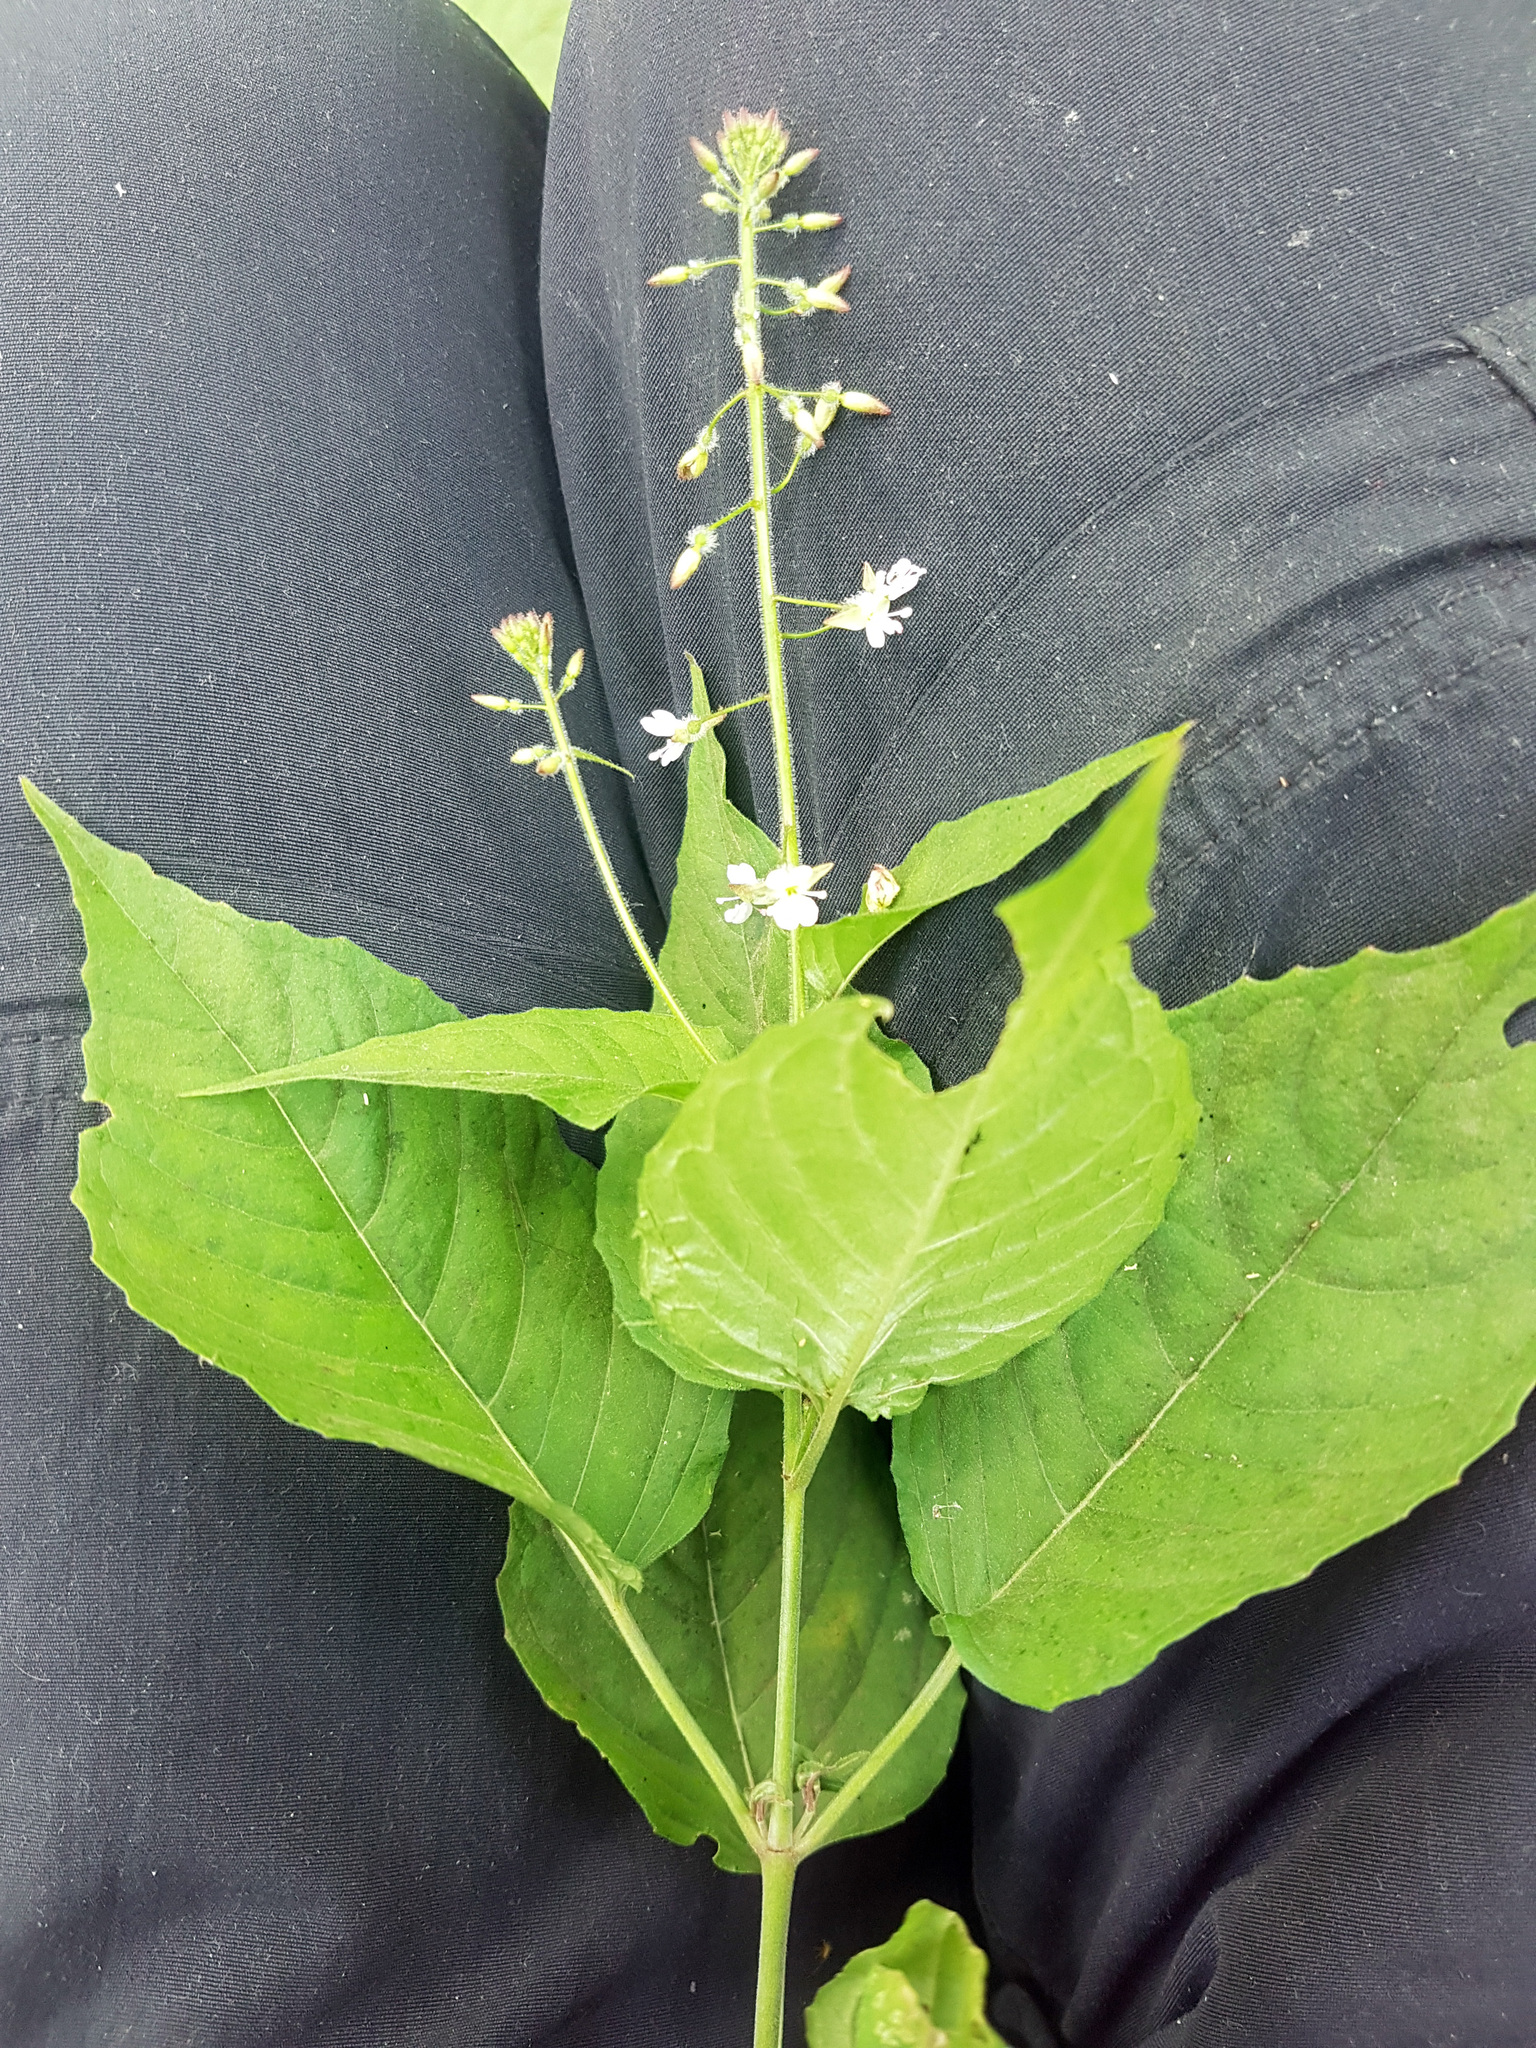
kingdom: Plantae
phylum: Tracheophyta
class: Magnoliopsida
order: Myrtales
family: Onagraceae
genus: Circaea
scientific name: Circaea lutetiana
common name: Enchanter's-nightshade
